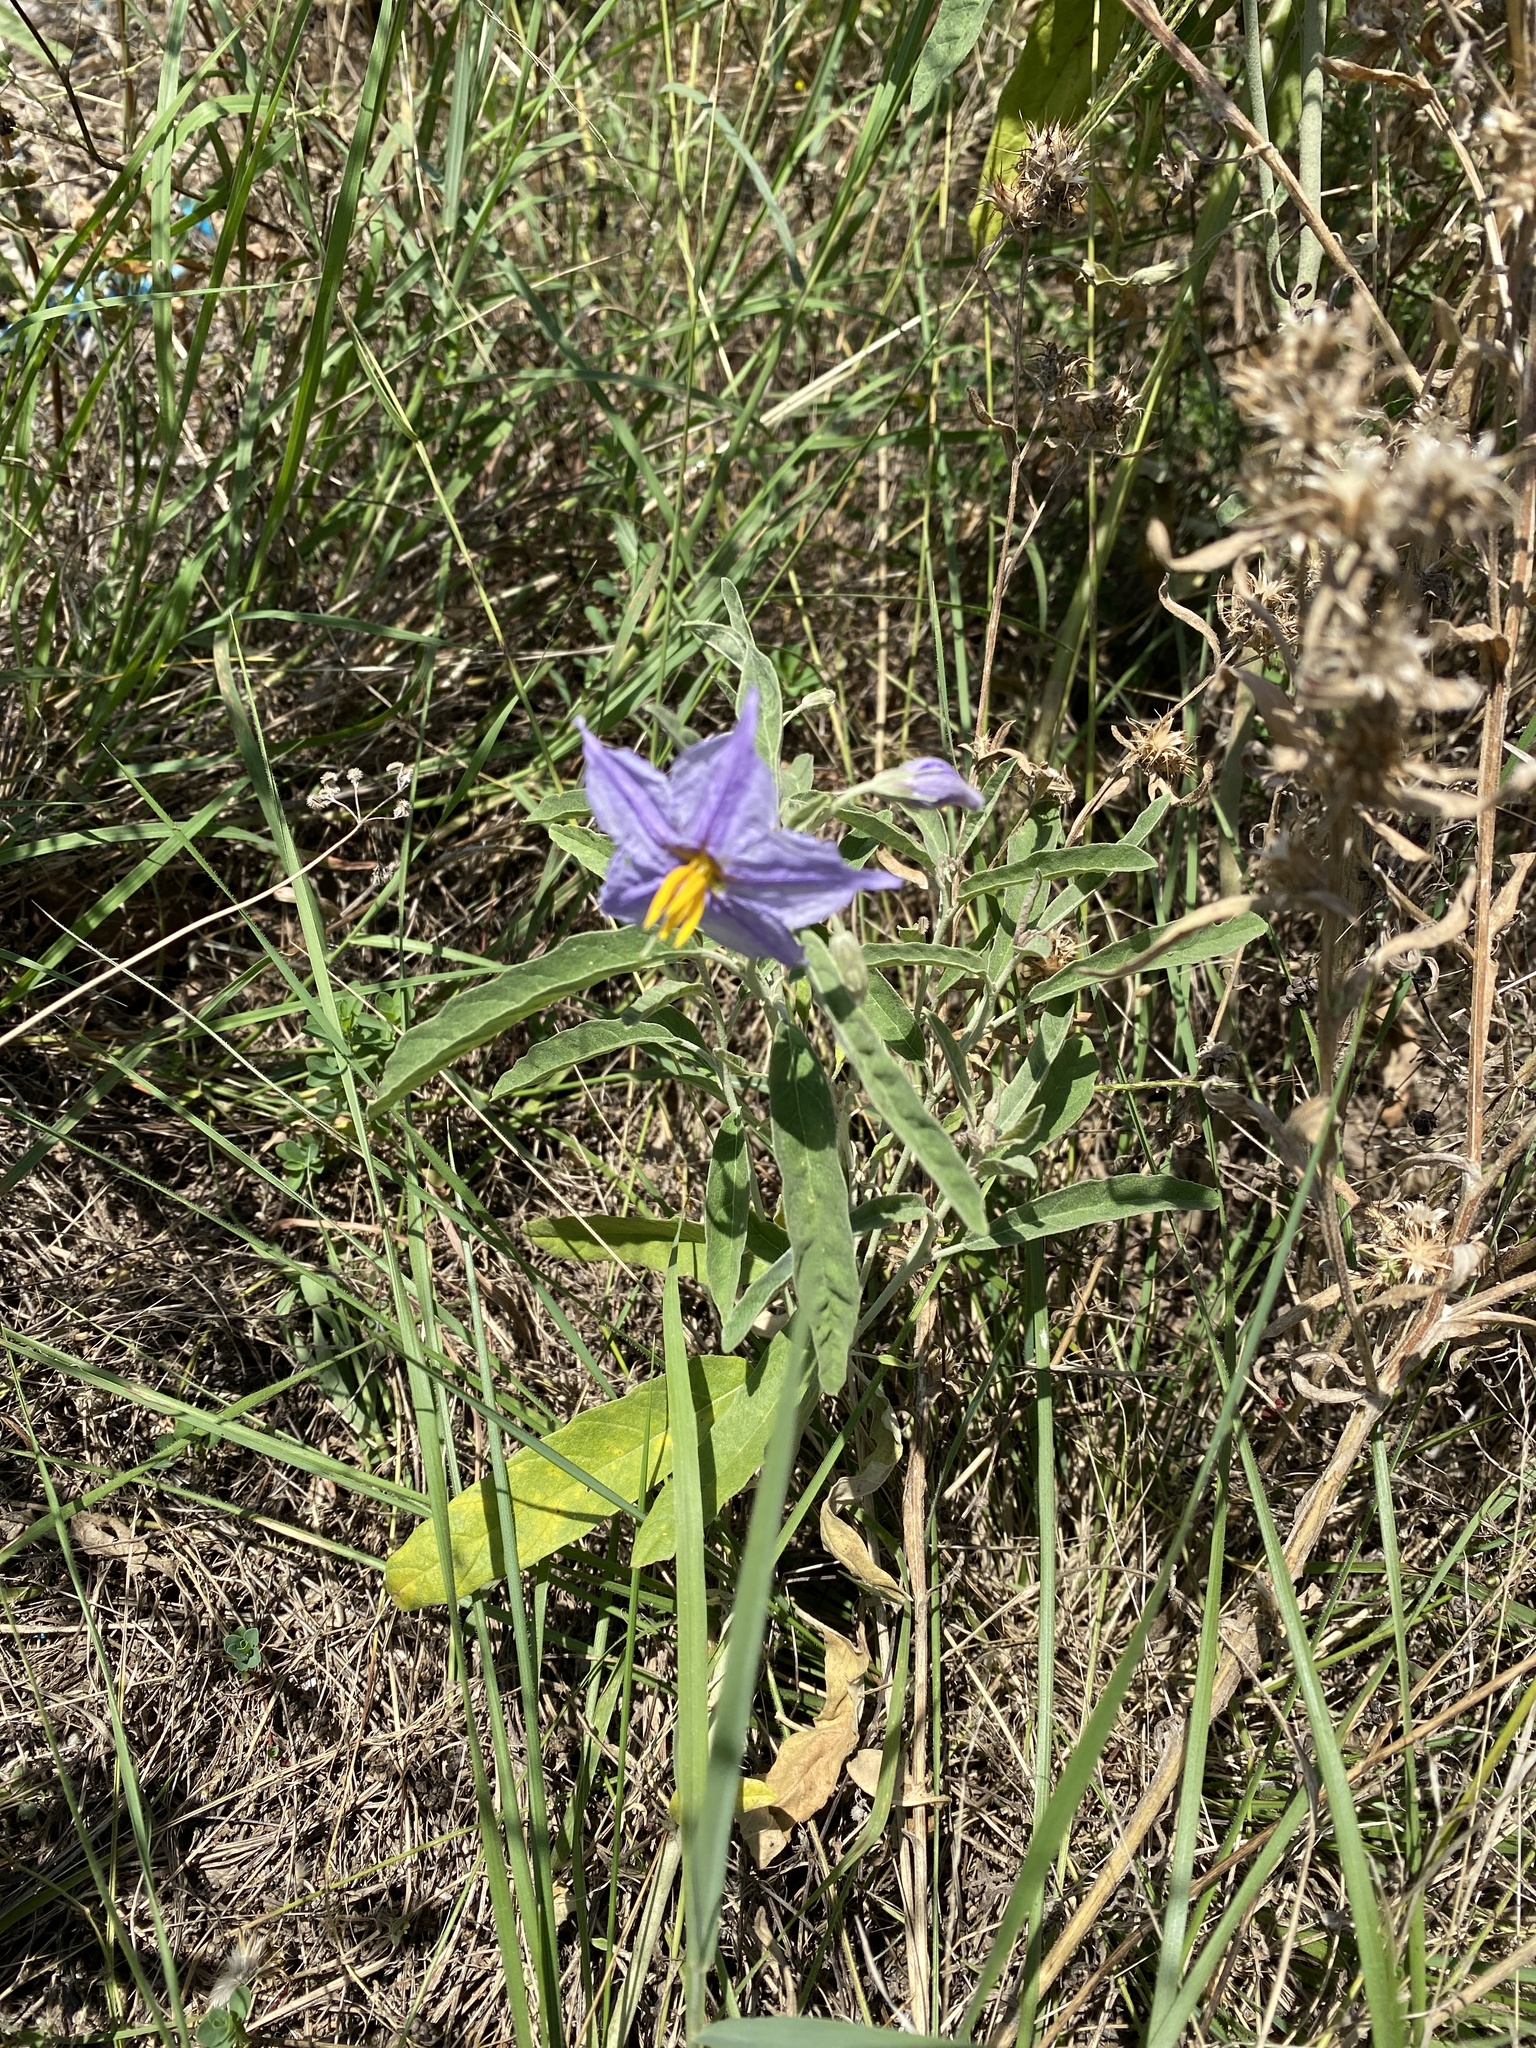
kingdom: Plantae
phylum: Tracheophyta
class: Magnoliopsida
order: Solanales
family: Solanaceae
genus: Solanum
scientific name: Solanum elaeagnifolium
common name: Silverleaf nightshade
